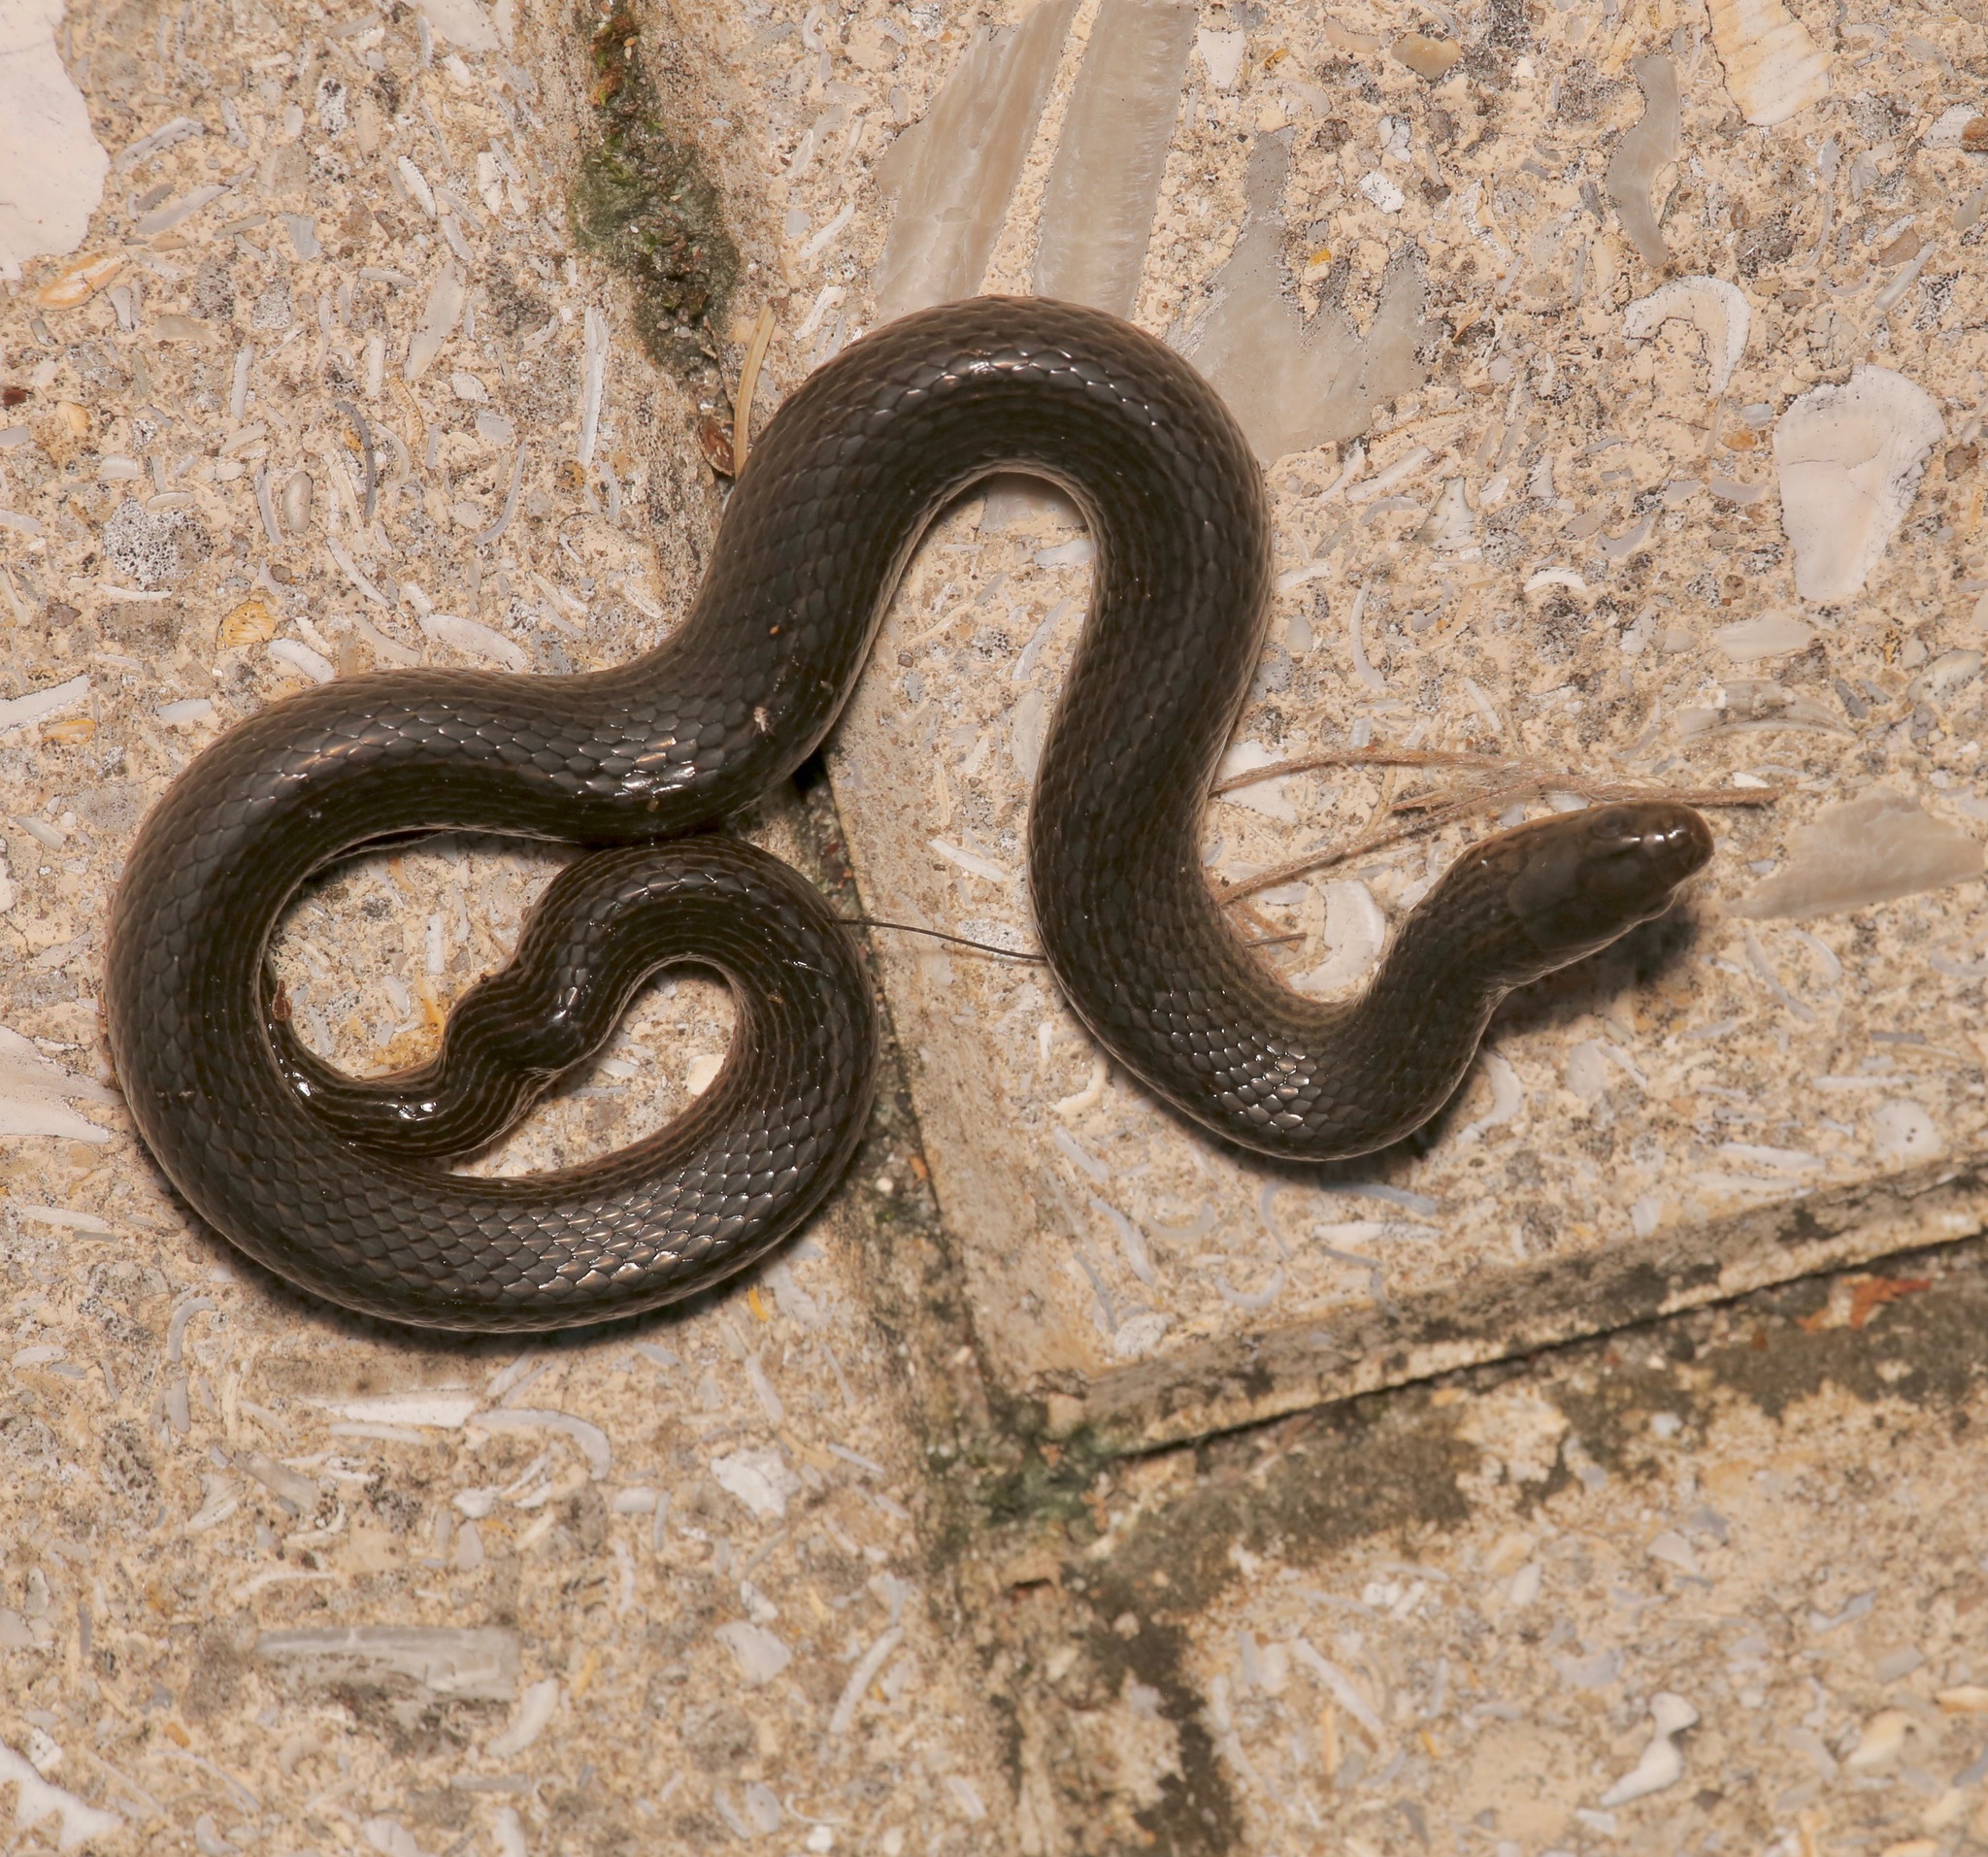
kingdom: Animalia
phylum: Chordata
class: Squamata
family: Colubridae
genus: Liodytes
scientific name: Liodytes pygaea
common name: Black swamp snake
